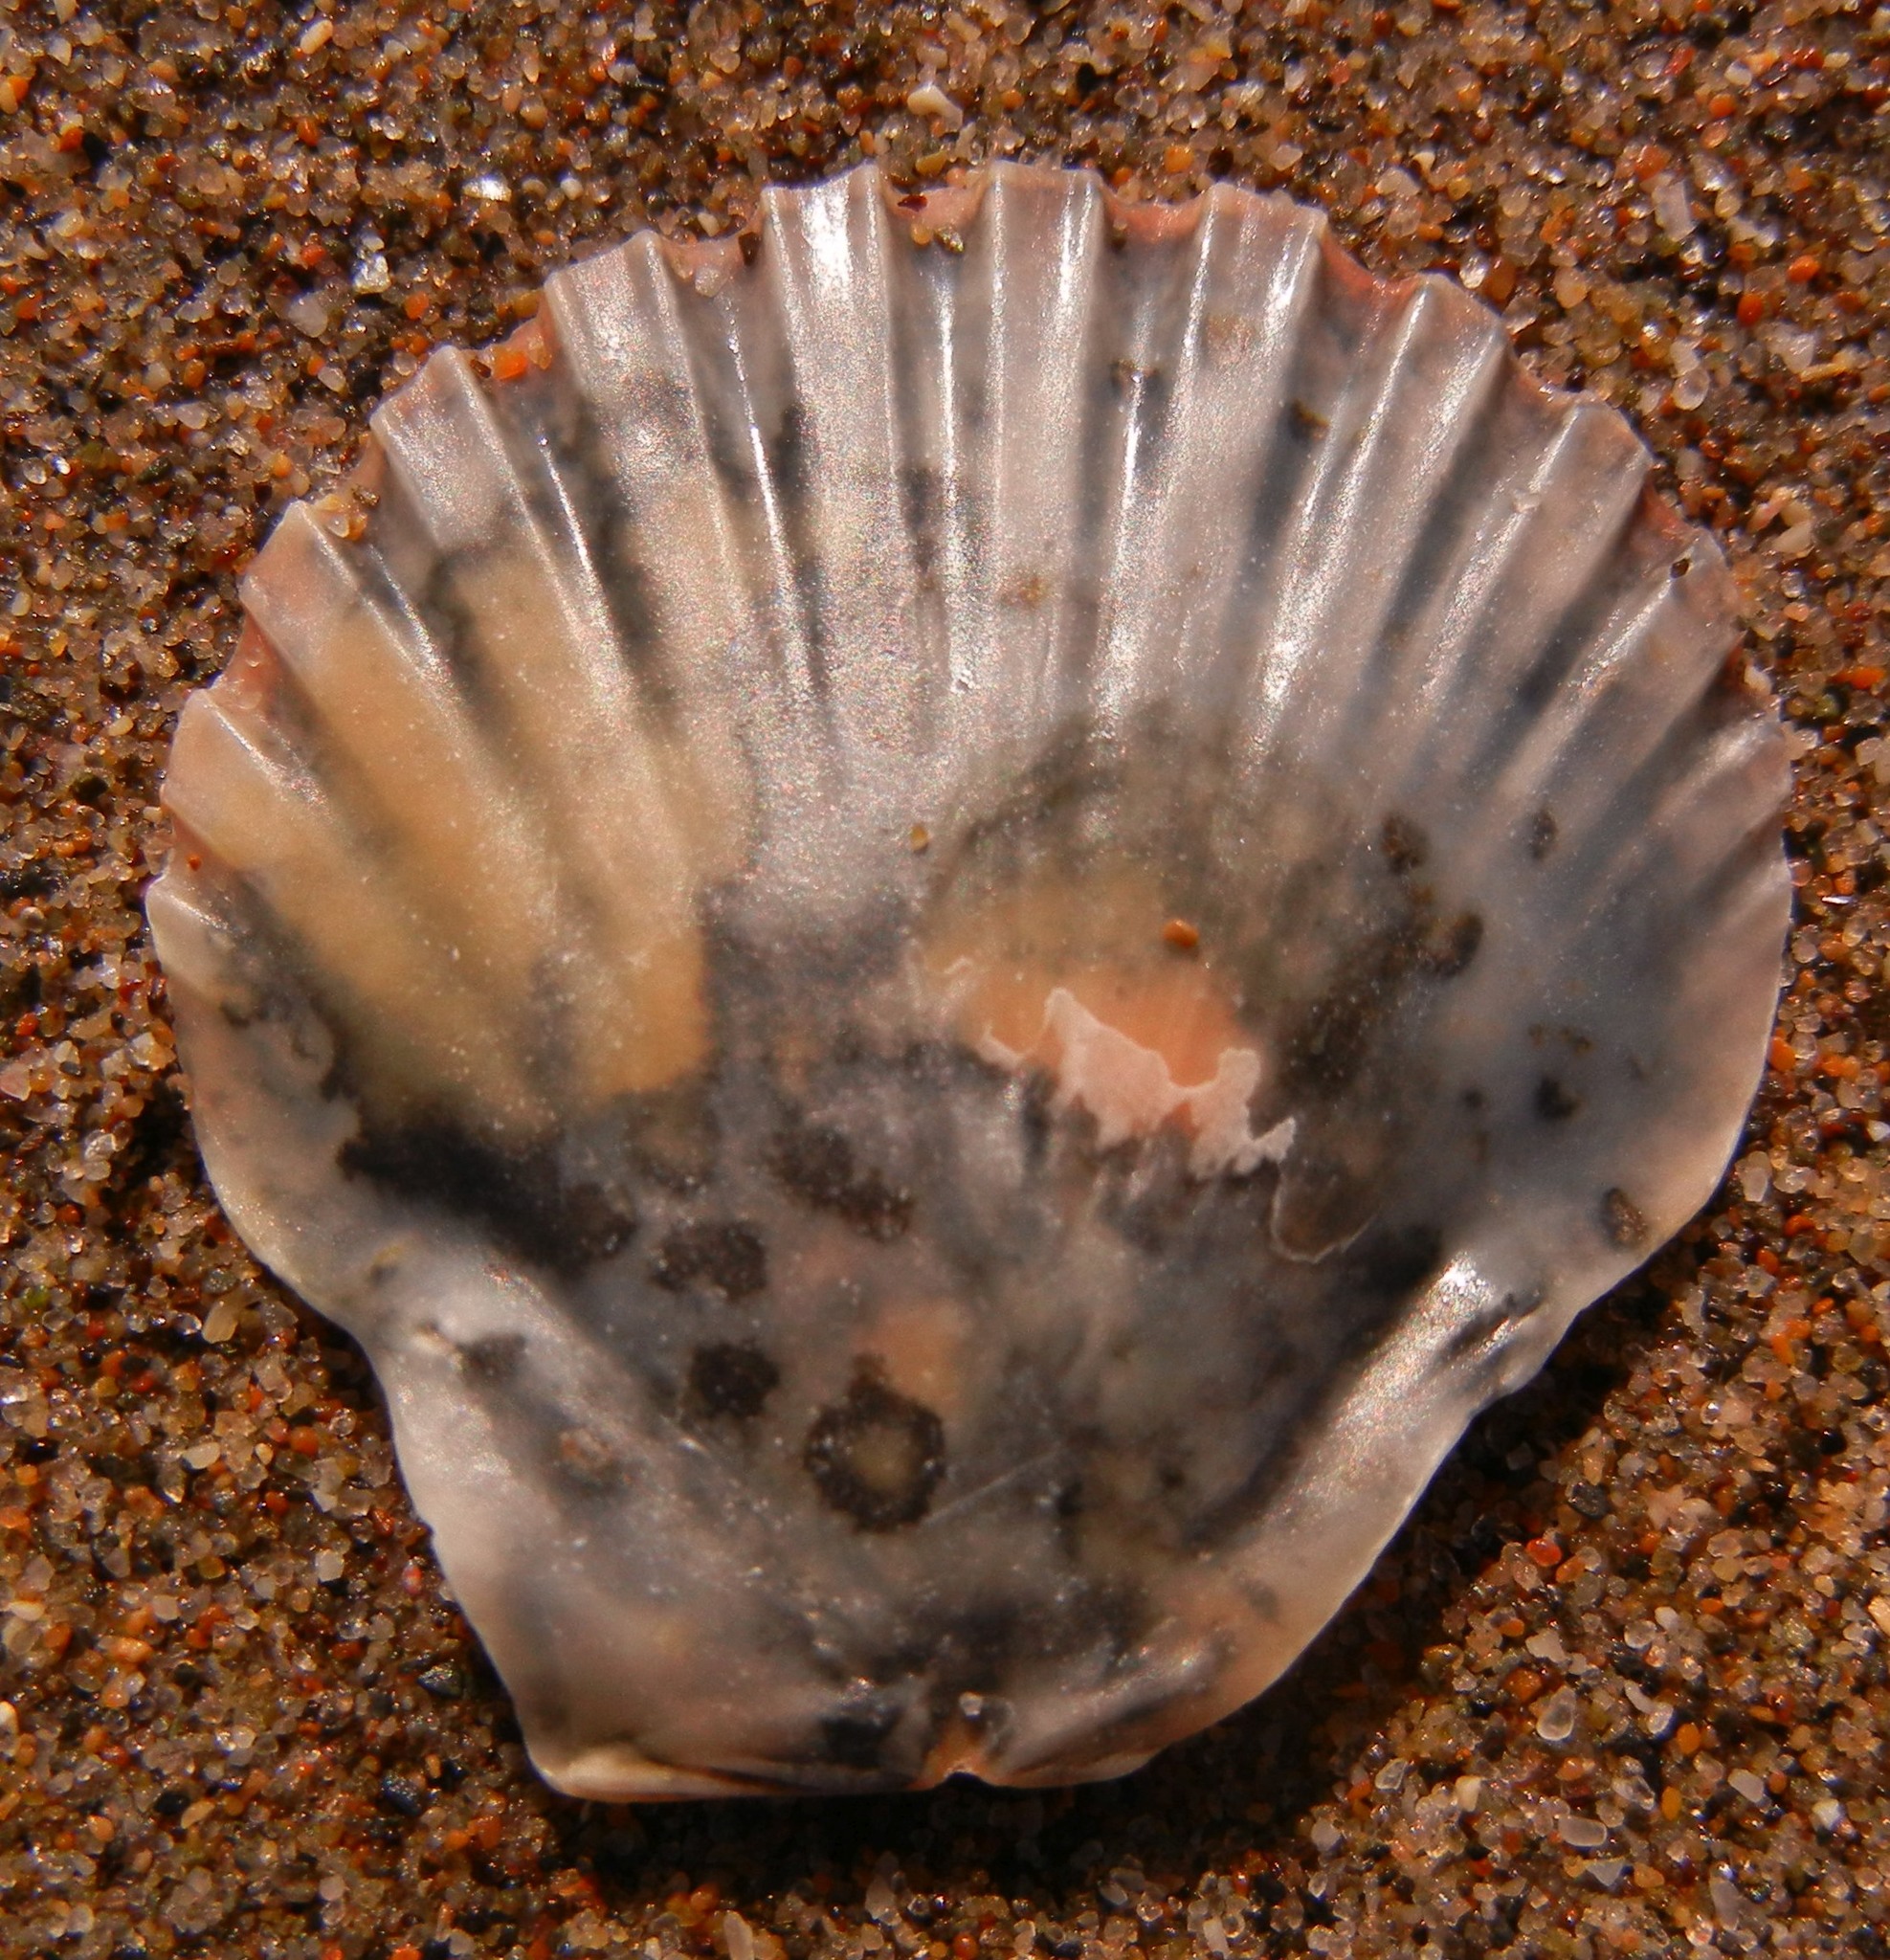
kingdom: Animalia
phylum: Mollusca
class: Bivalvia
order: Pectinida
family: Pectinidae
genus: Pecten
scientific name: Pecten maximus
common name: Great scallop
